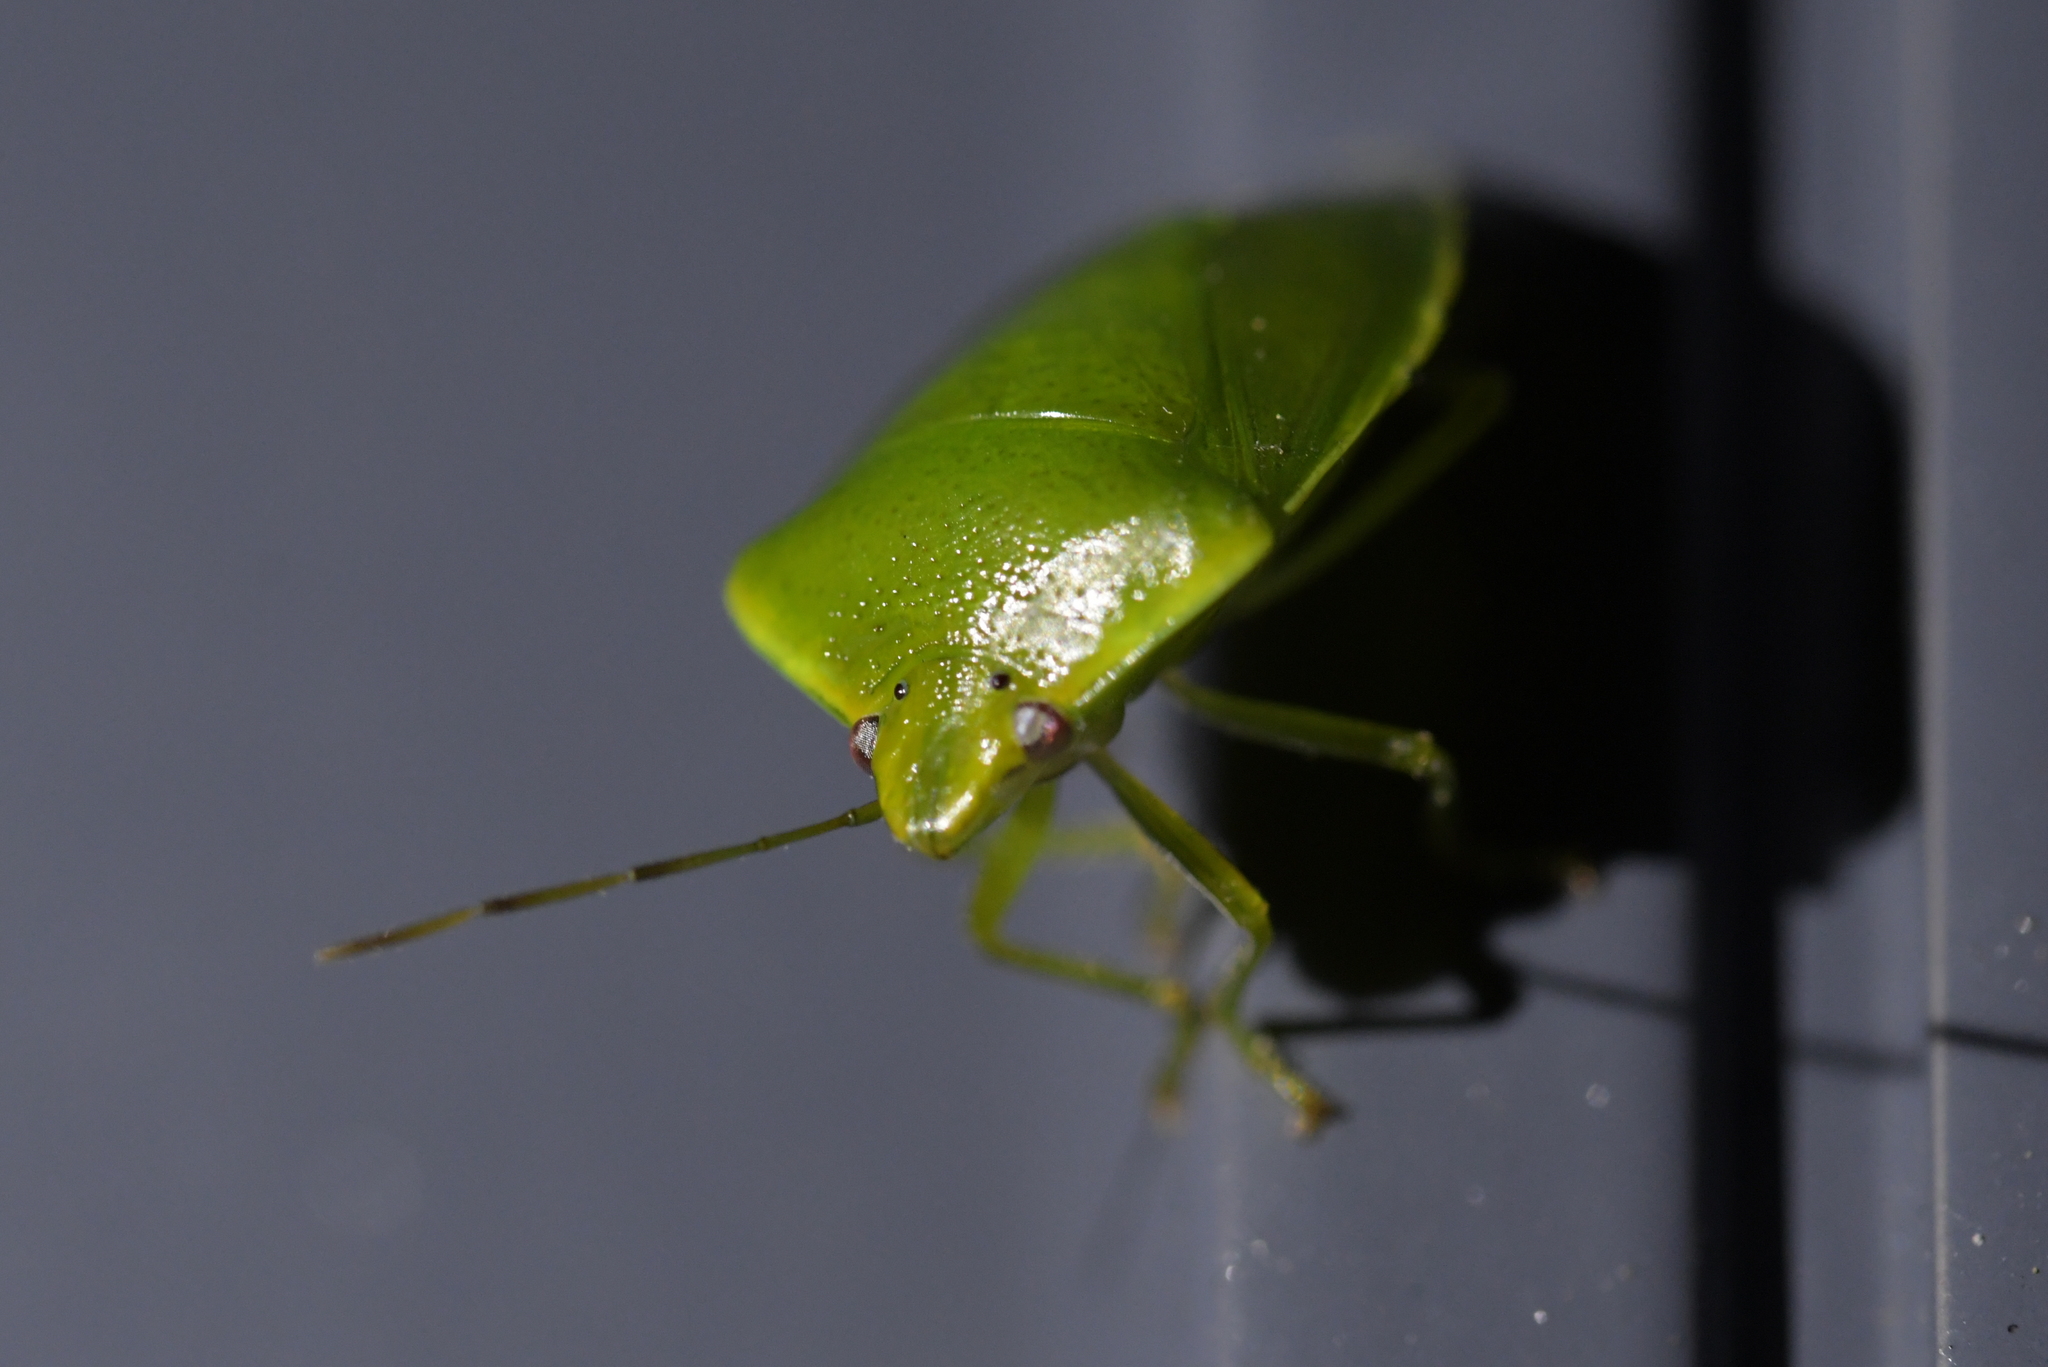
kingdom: Animalia
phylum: Arthropoda
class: Insecta
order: Hemiptera
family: Pentatomidae
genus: Glaucias
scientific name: Glaucias amyota
